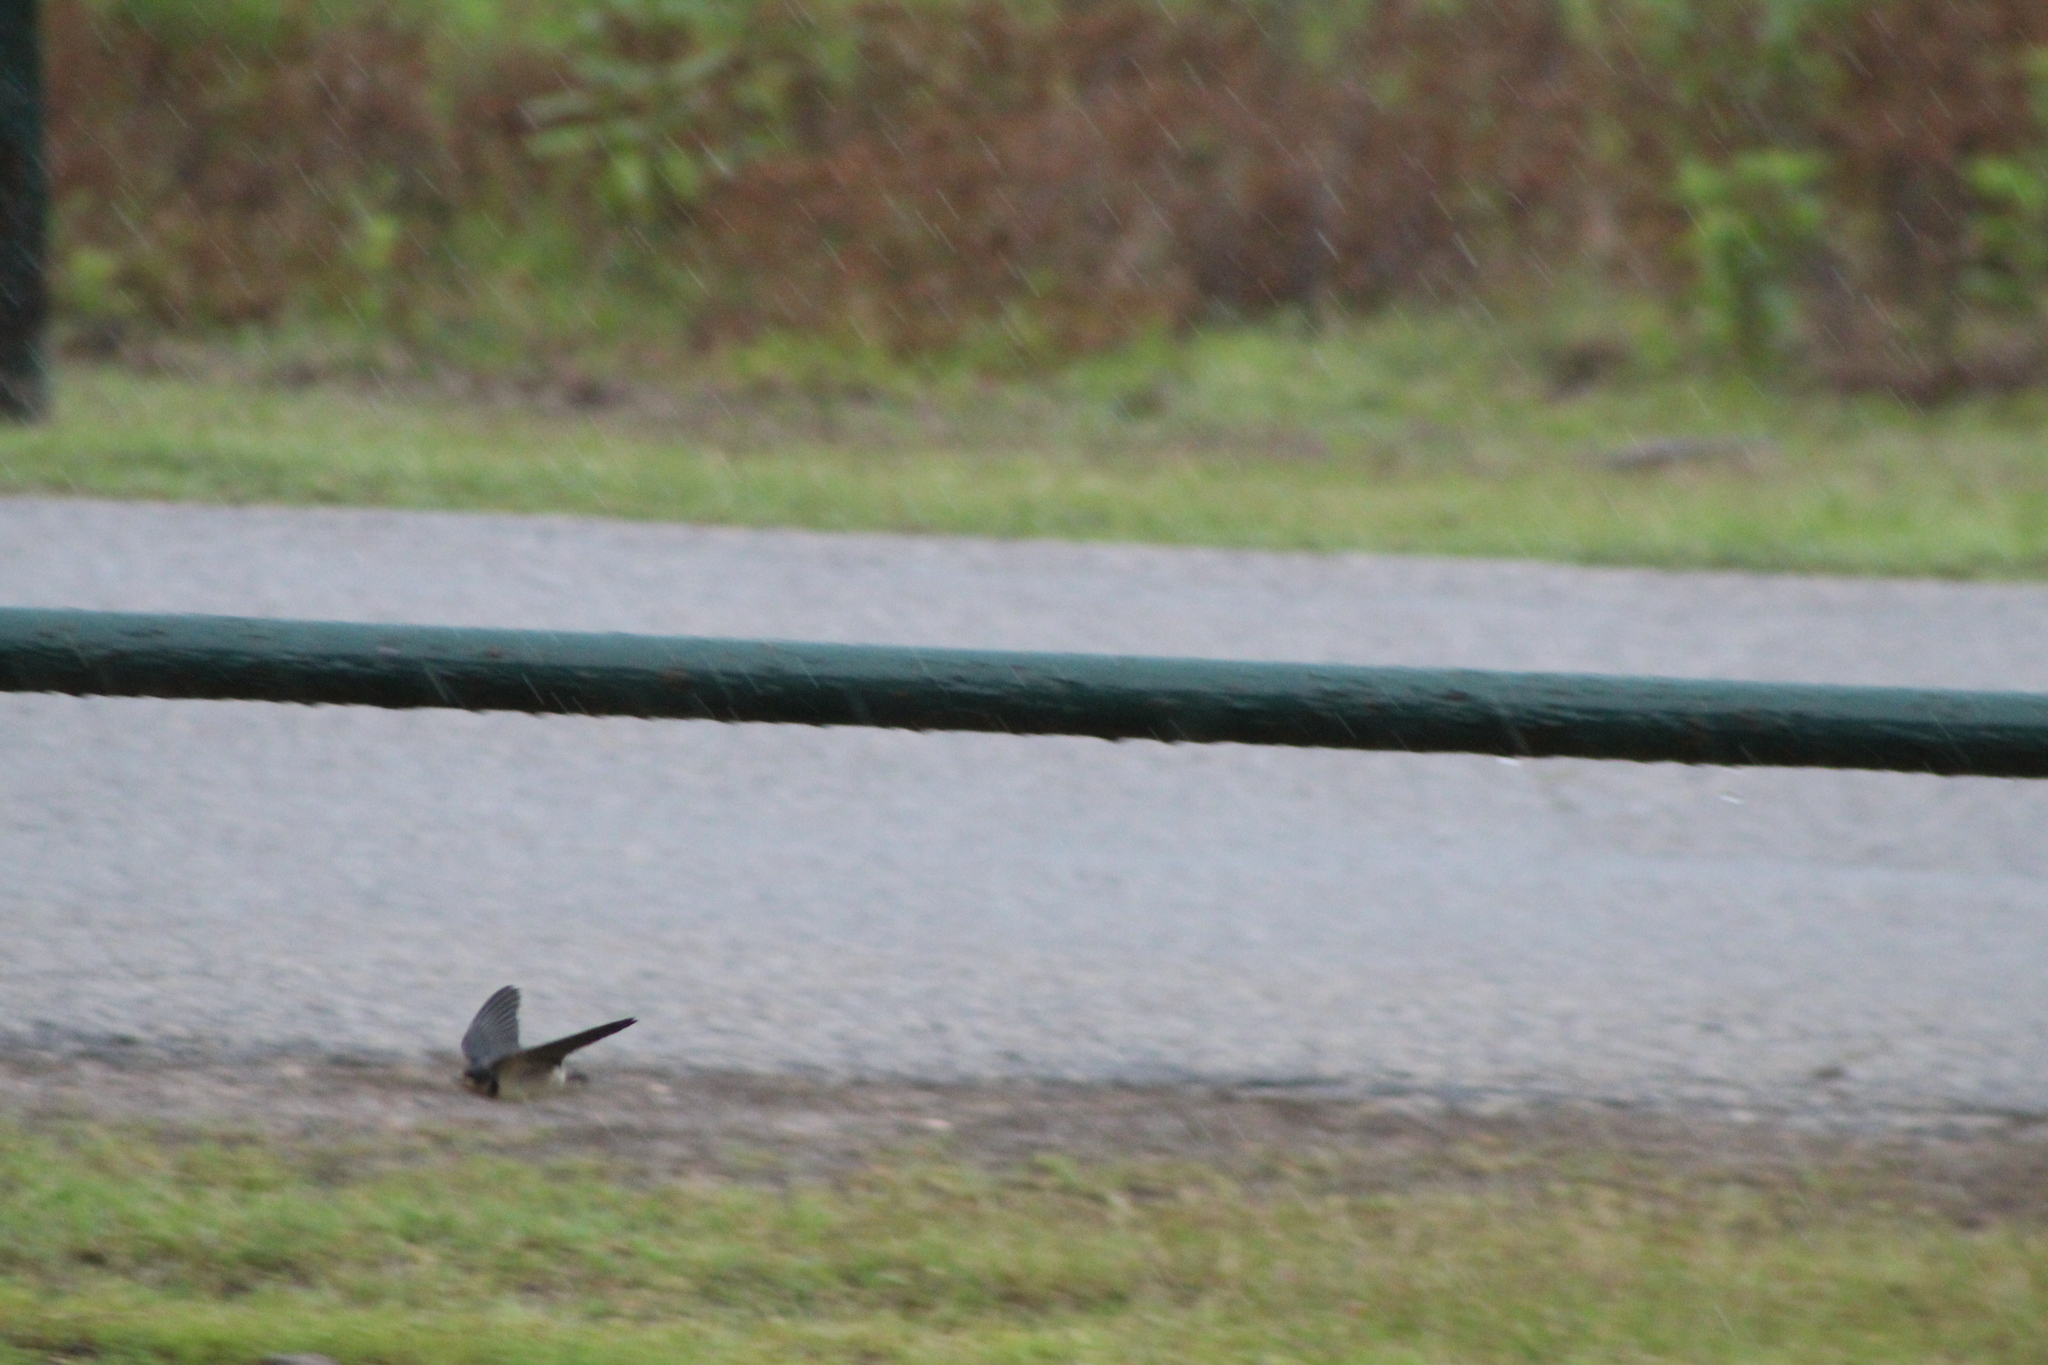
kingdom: Animalia
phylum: Chordata
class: Aves
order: Passeriformes
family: Hirundinidae
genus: Hirundo
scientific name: Hirundo rustica
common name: Barn swallow
